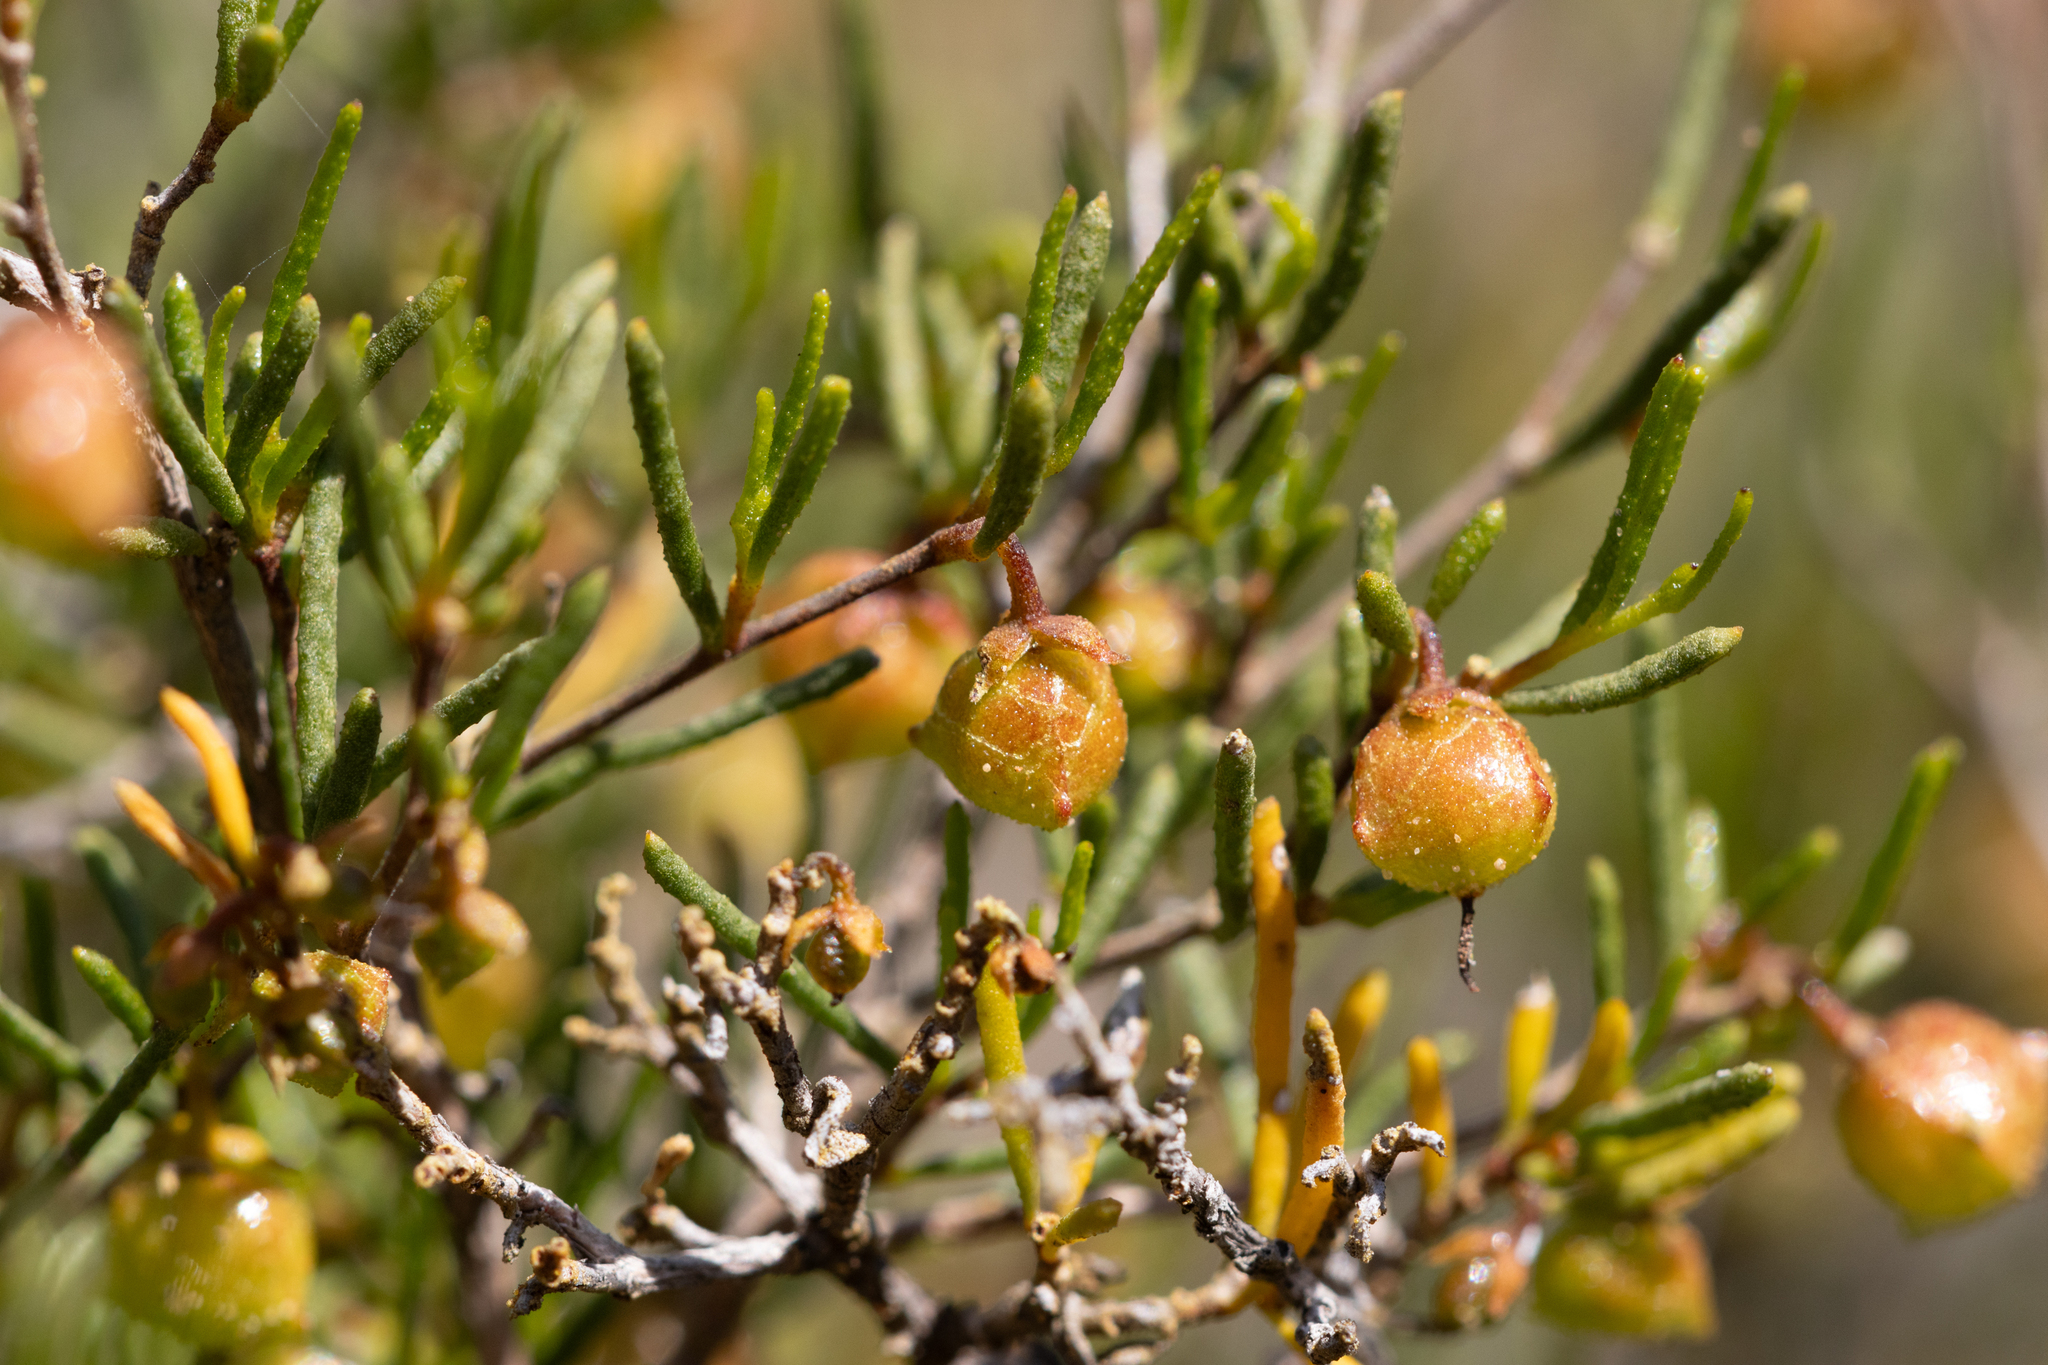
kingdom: Plantae
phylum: Tracheophyta
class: Magnoliopsida
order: Sapindales
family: Sapindaceae
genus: Dodonaea
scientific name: Dodonaea hexandra
